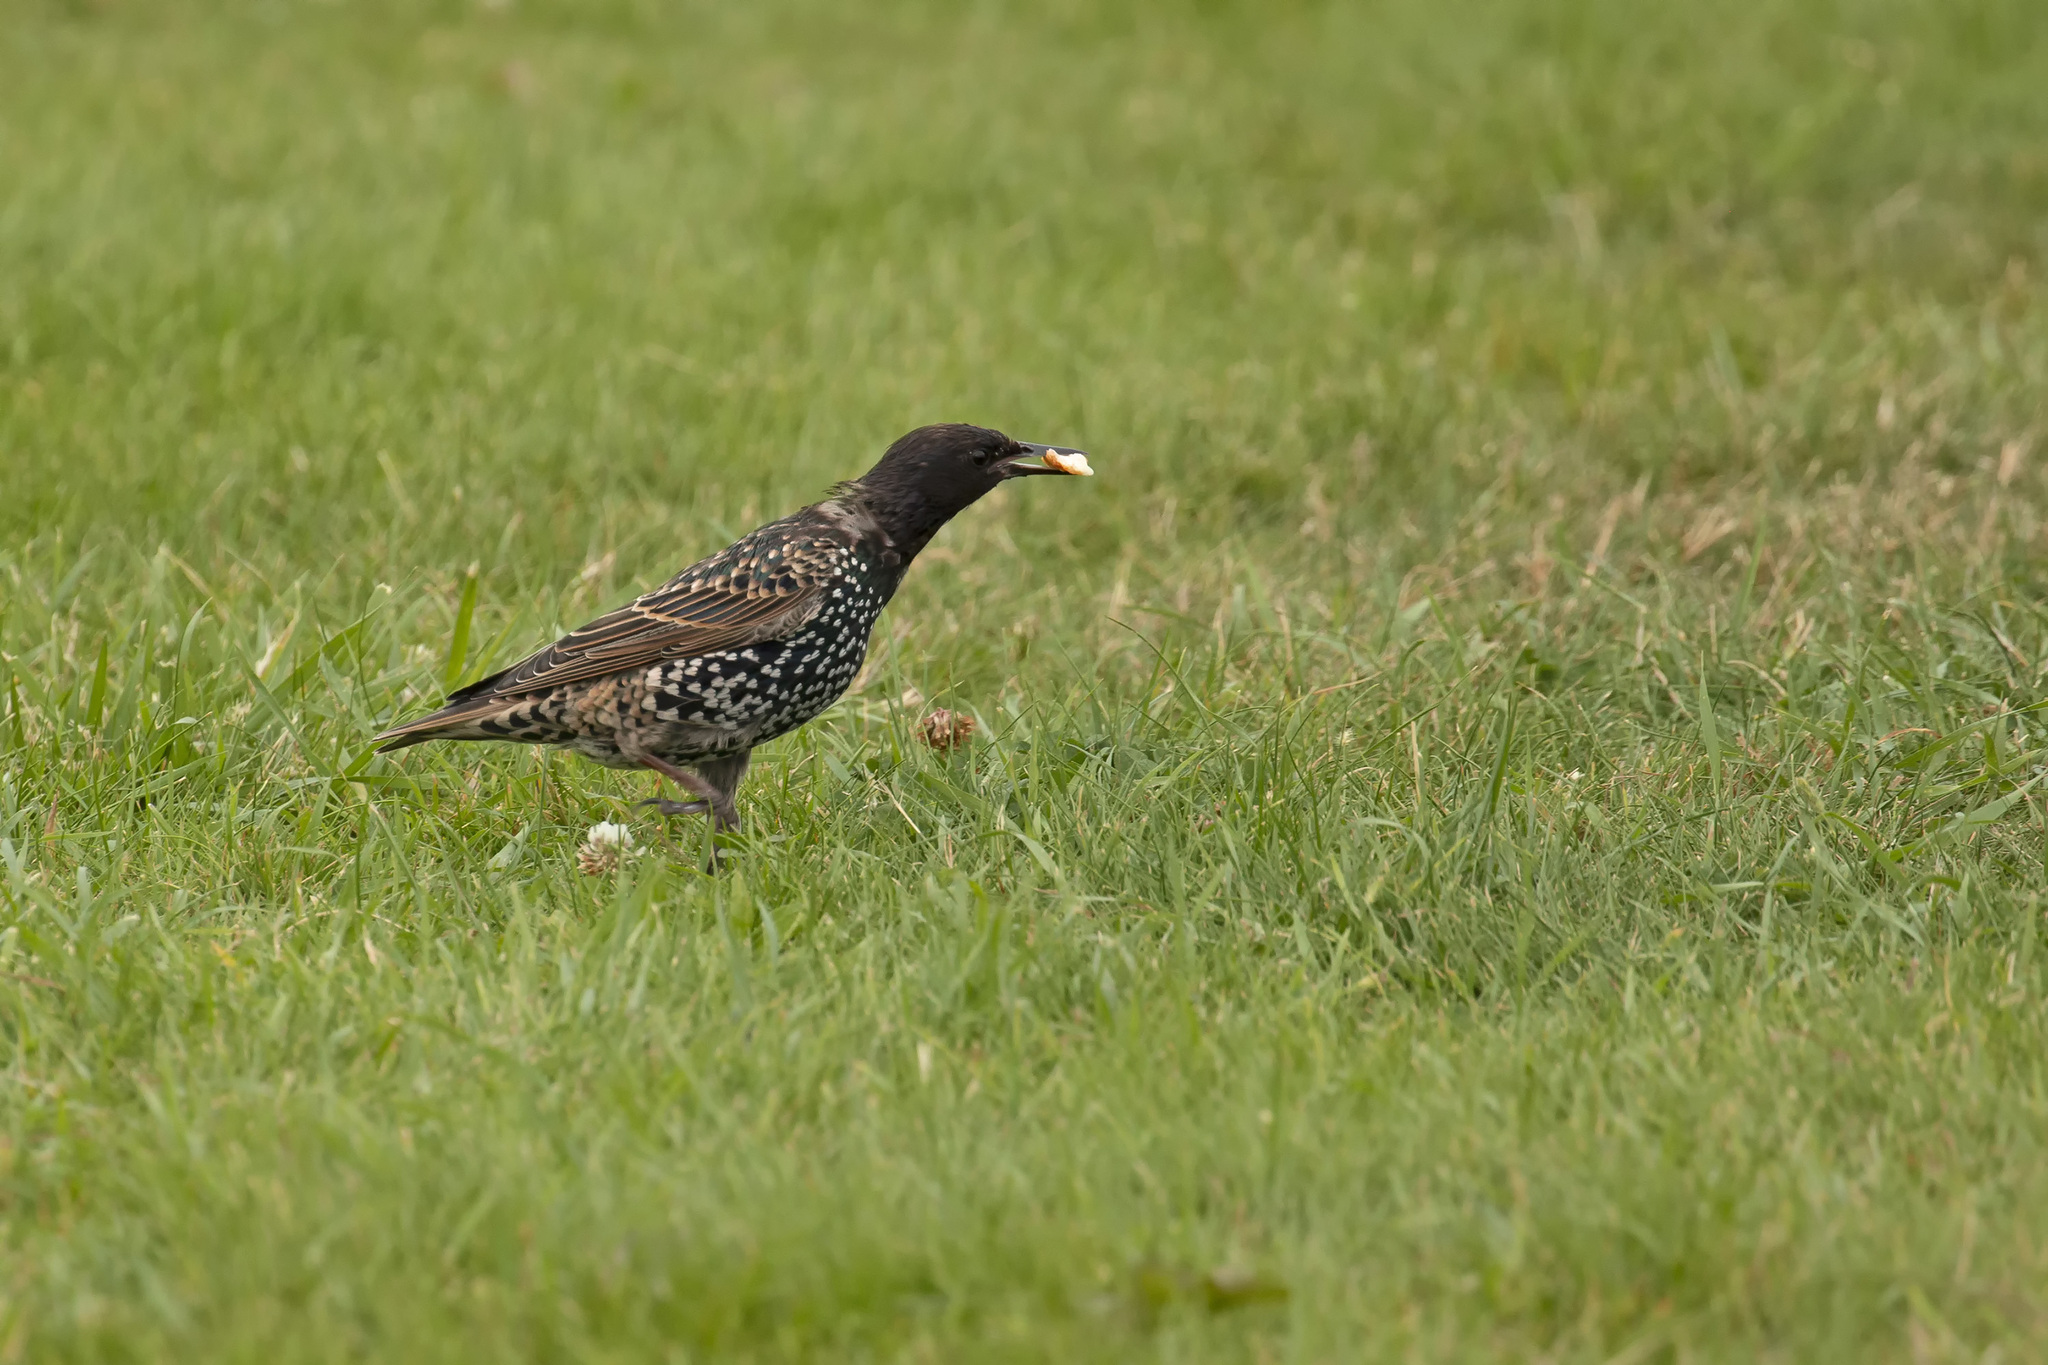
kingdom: Animalia
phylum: Chordata
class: Aves
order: Passeriformes
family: Sturnidae
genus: Sturnus
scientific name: Sturnus vulgaris
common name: Common starling
